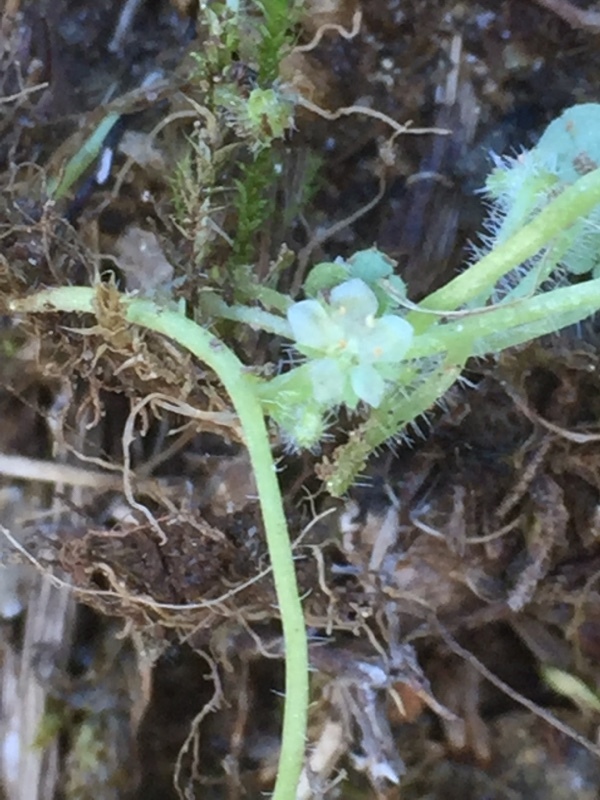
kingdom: Plantae
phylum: Tracheophyta
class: Magnoliopsida
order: Lamiales
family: Plantaginaceae
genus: Sibthorpia
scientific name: Sibthorpia europaea
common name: Cornish moneywort
